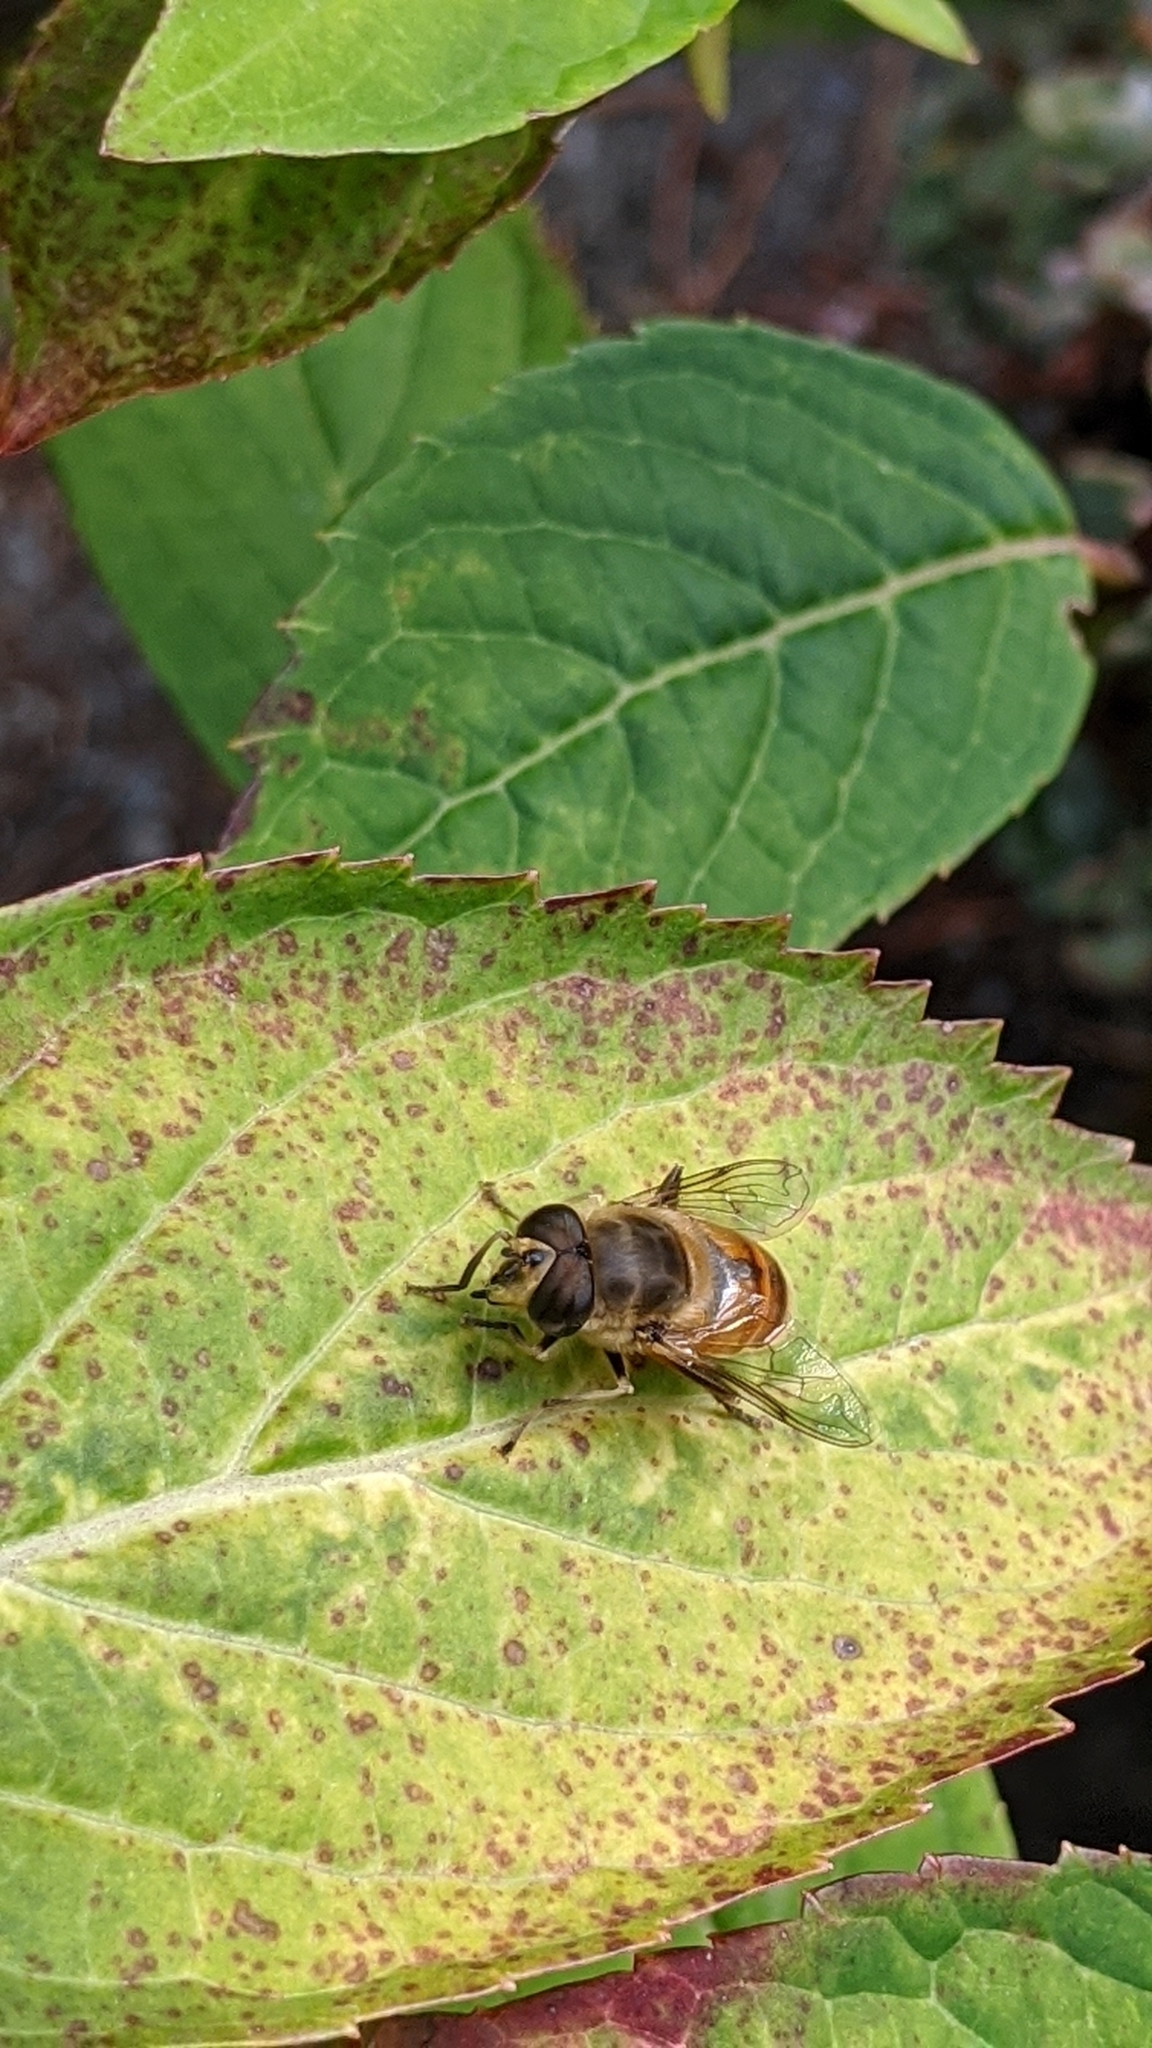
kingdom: Animalia
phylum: Arthropoda
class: Insecta
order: Diptera
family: Syrphidae
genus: Eristalis
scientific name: Eristalis tenax
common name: Drone fly
